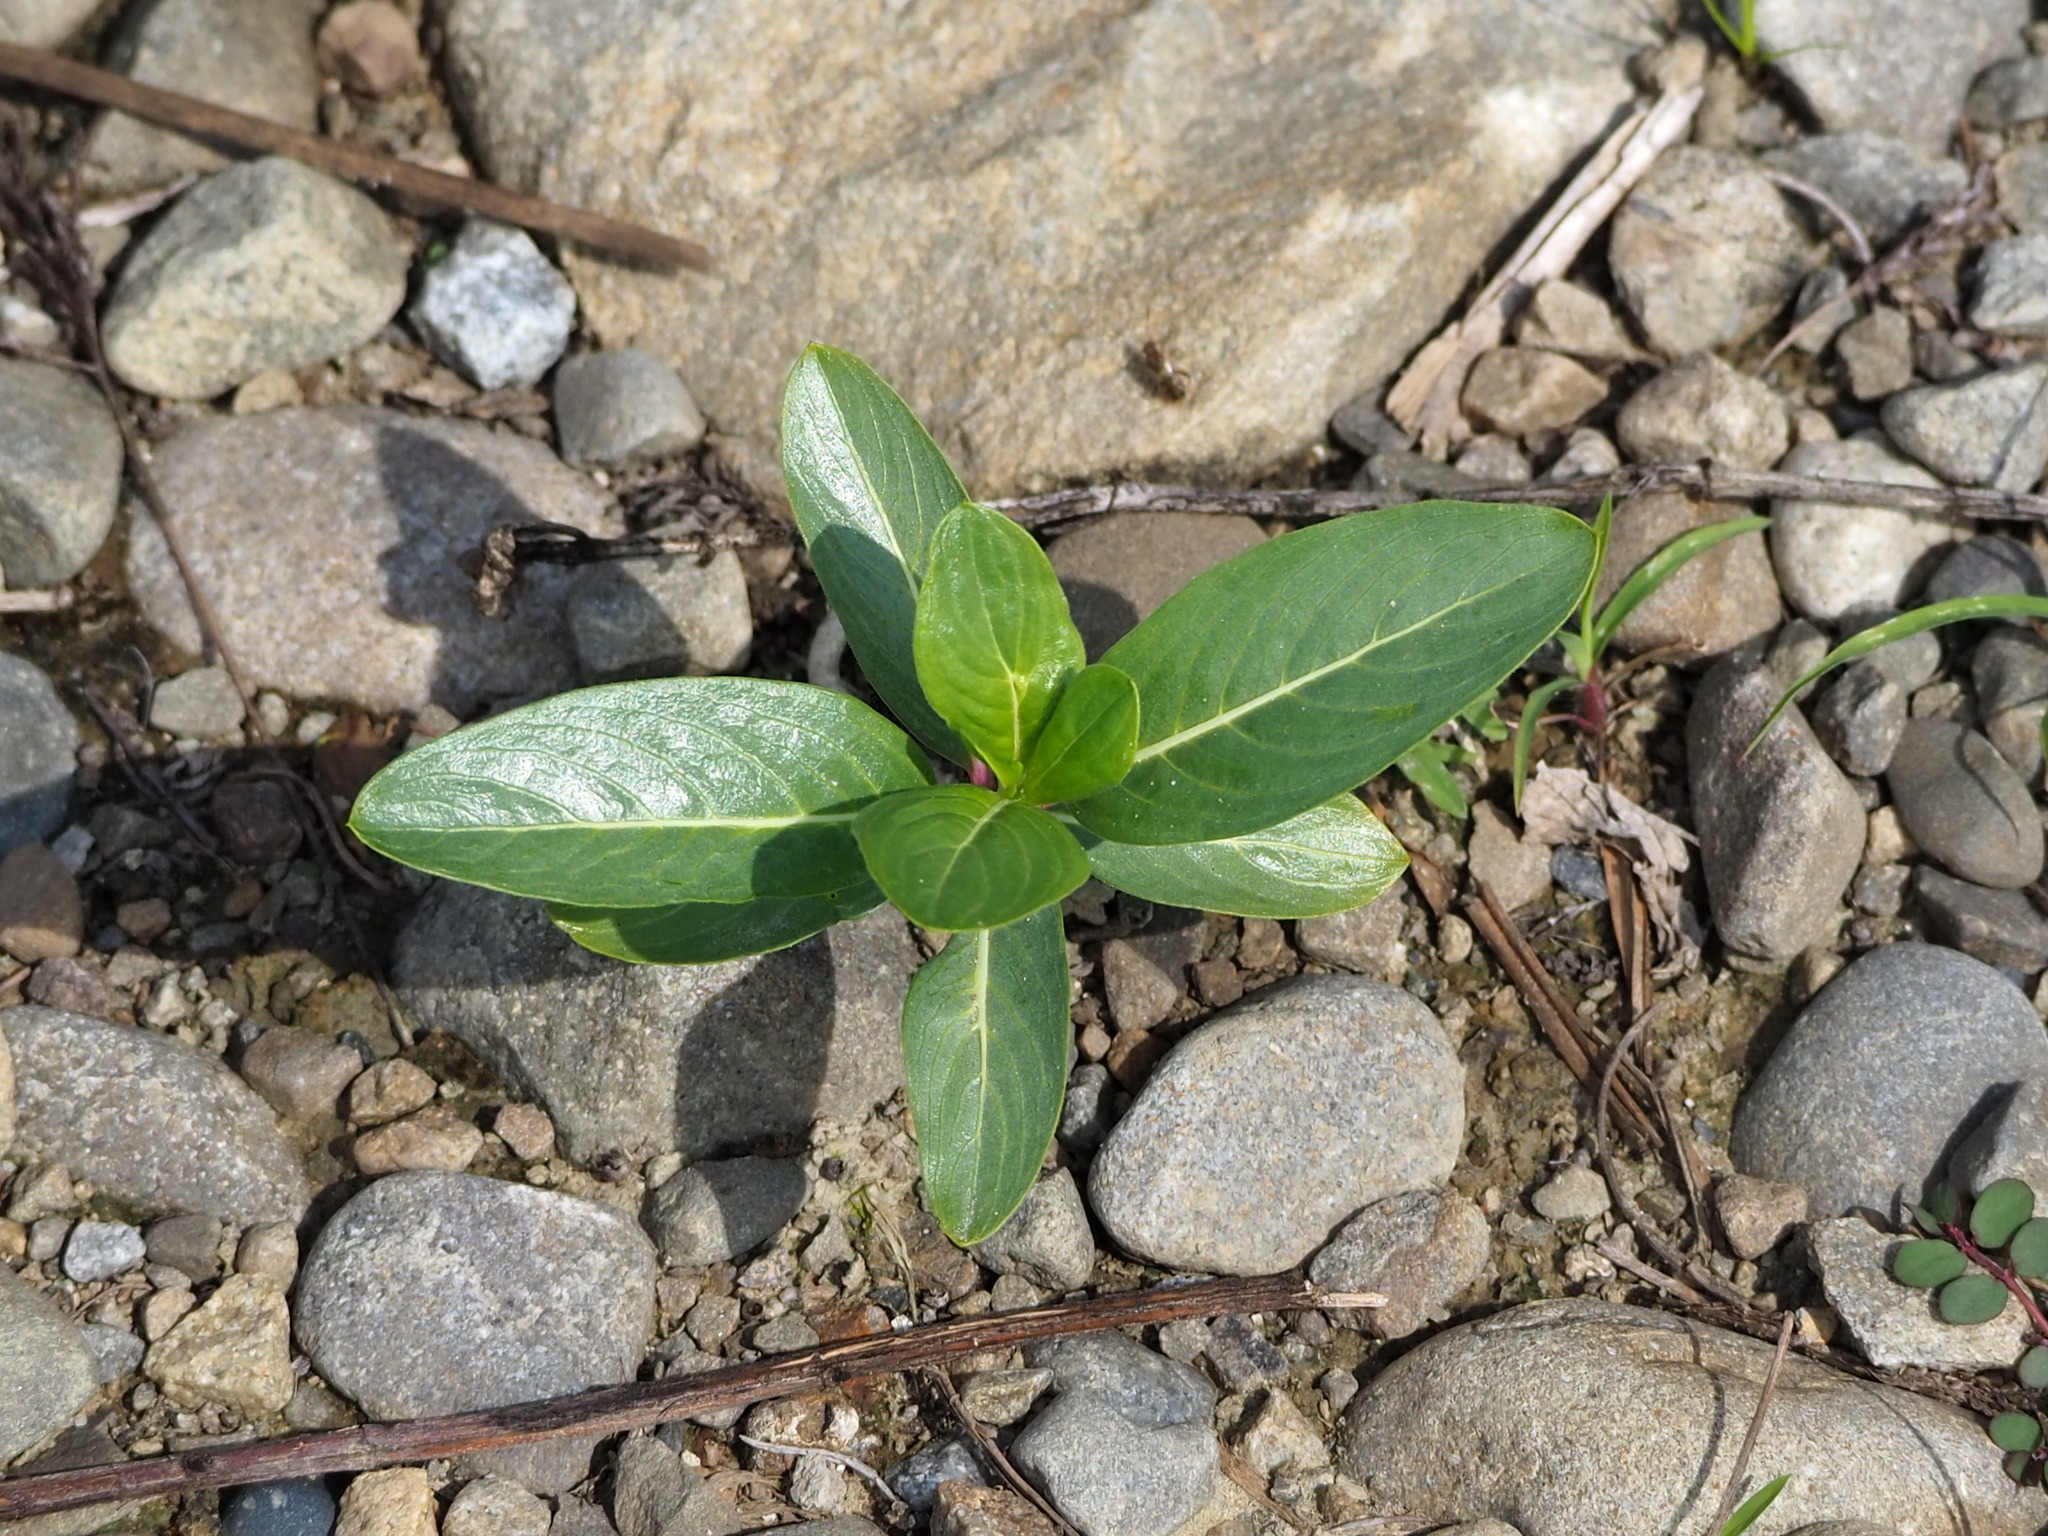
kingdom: Plantae
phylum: Tracheophyta
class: Magnoliopsida
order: Gentianales
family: Apocynaceae
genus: Catharanthus
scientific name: Catharanthus roseus
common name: Madagascar periwinkle
